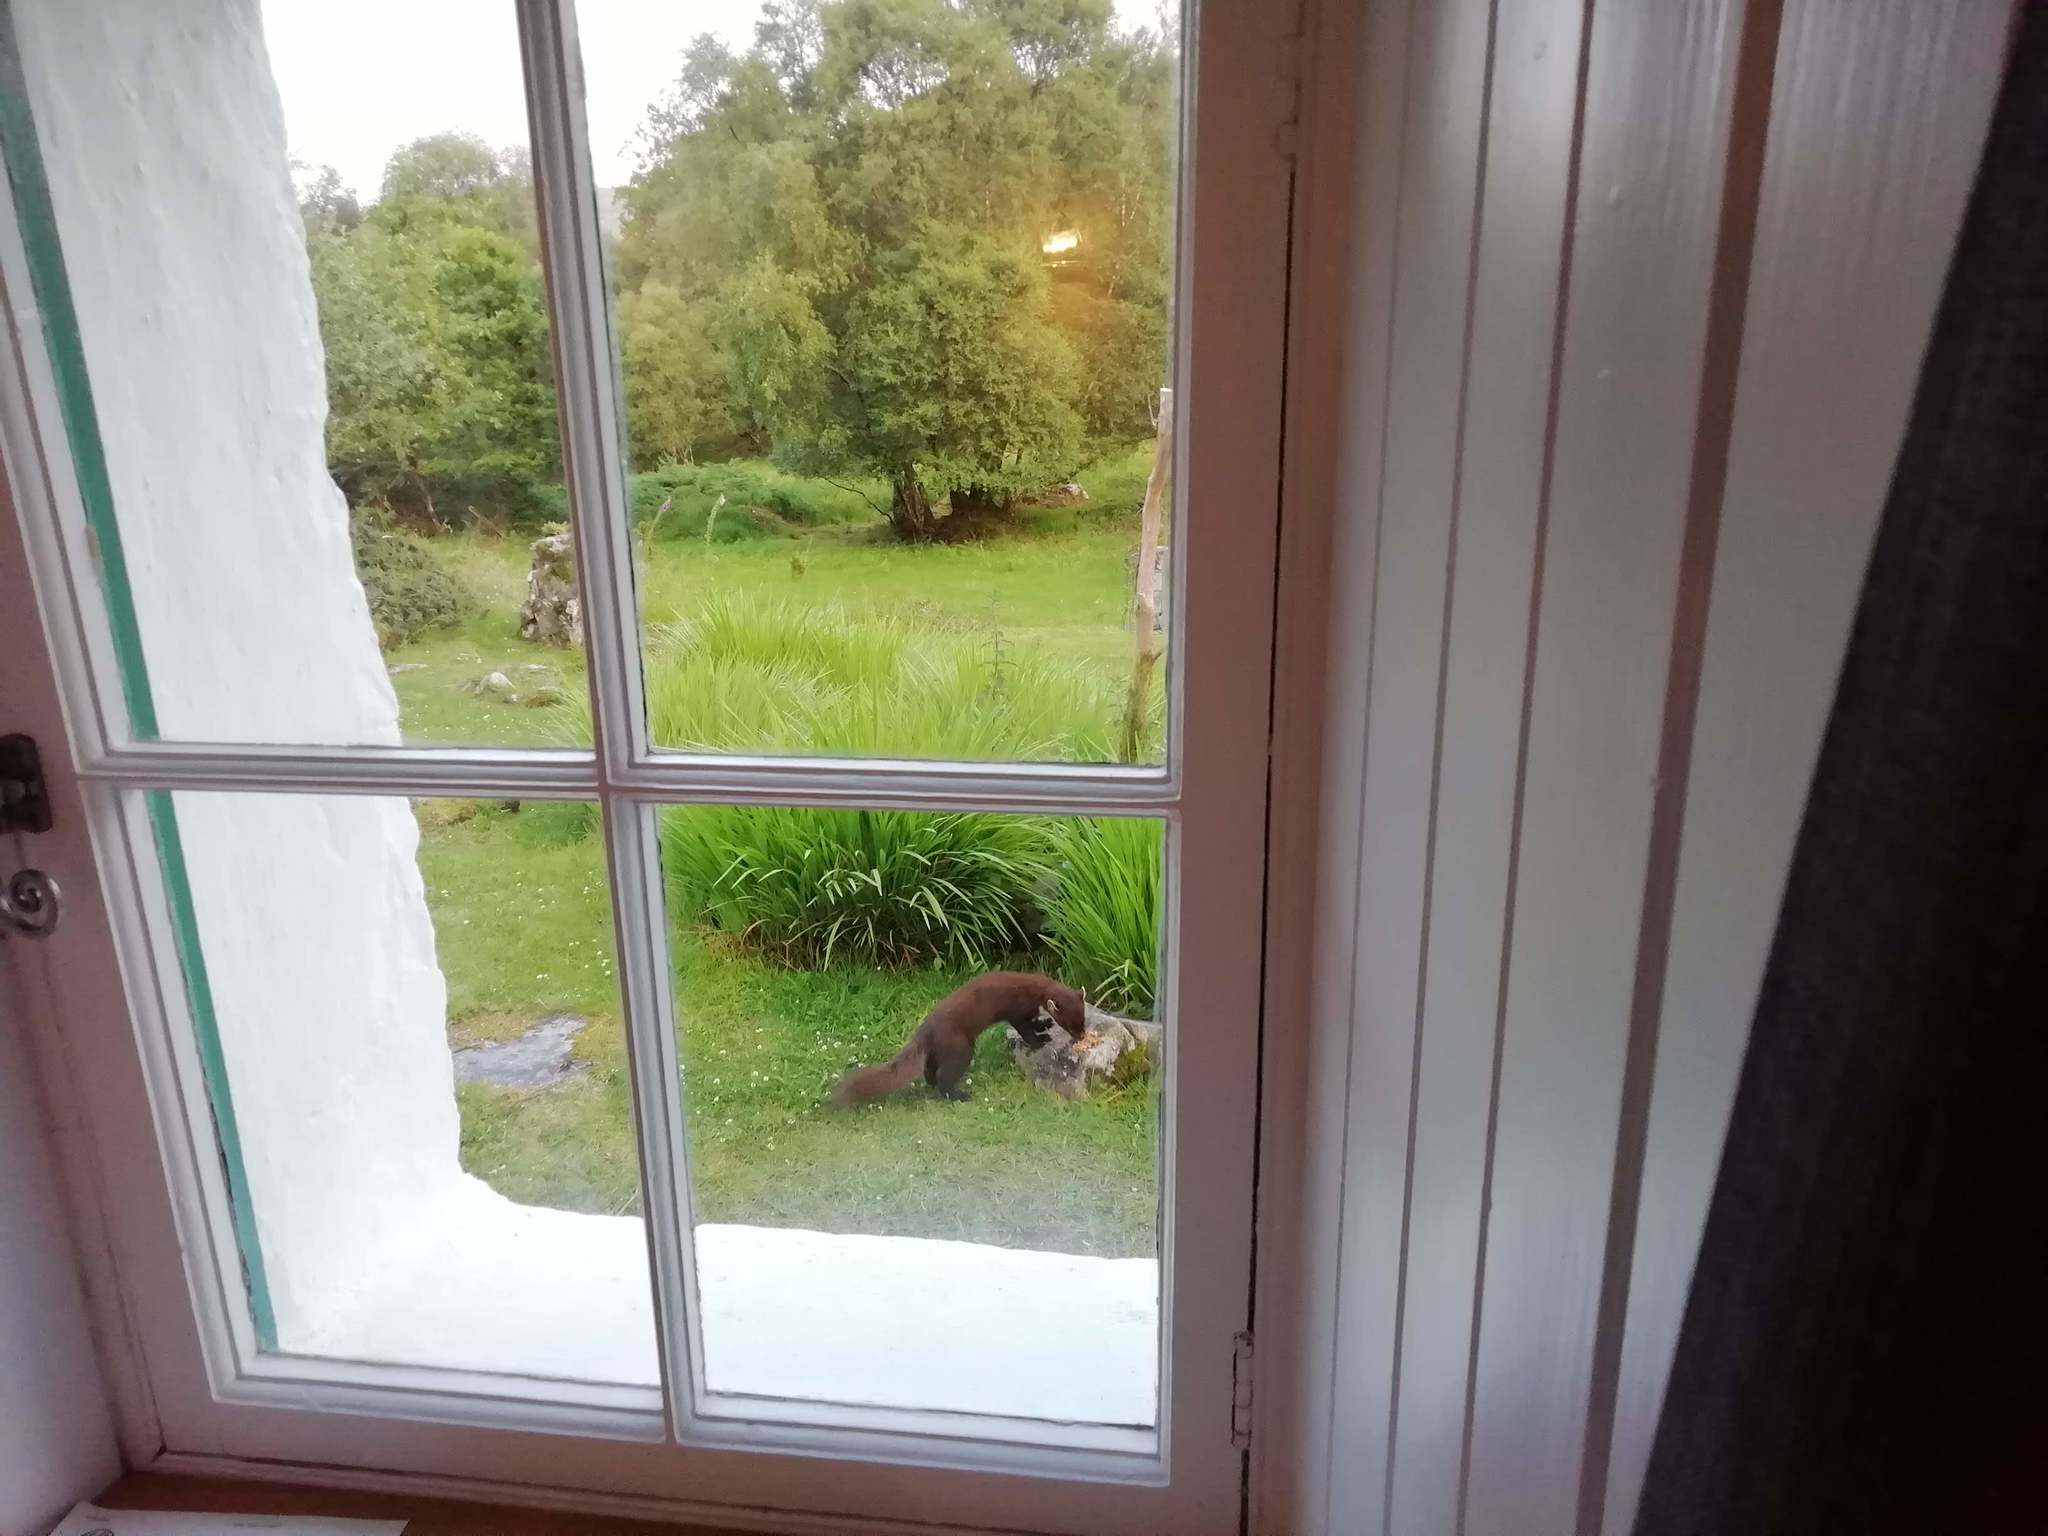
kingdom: Animalia
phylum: Chordata
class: Mammalia
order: Carnivora
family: Mustelidae
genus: Martes
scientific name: Martes martes
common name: European pine marten
